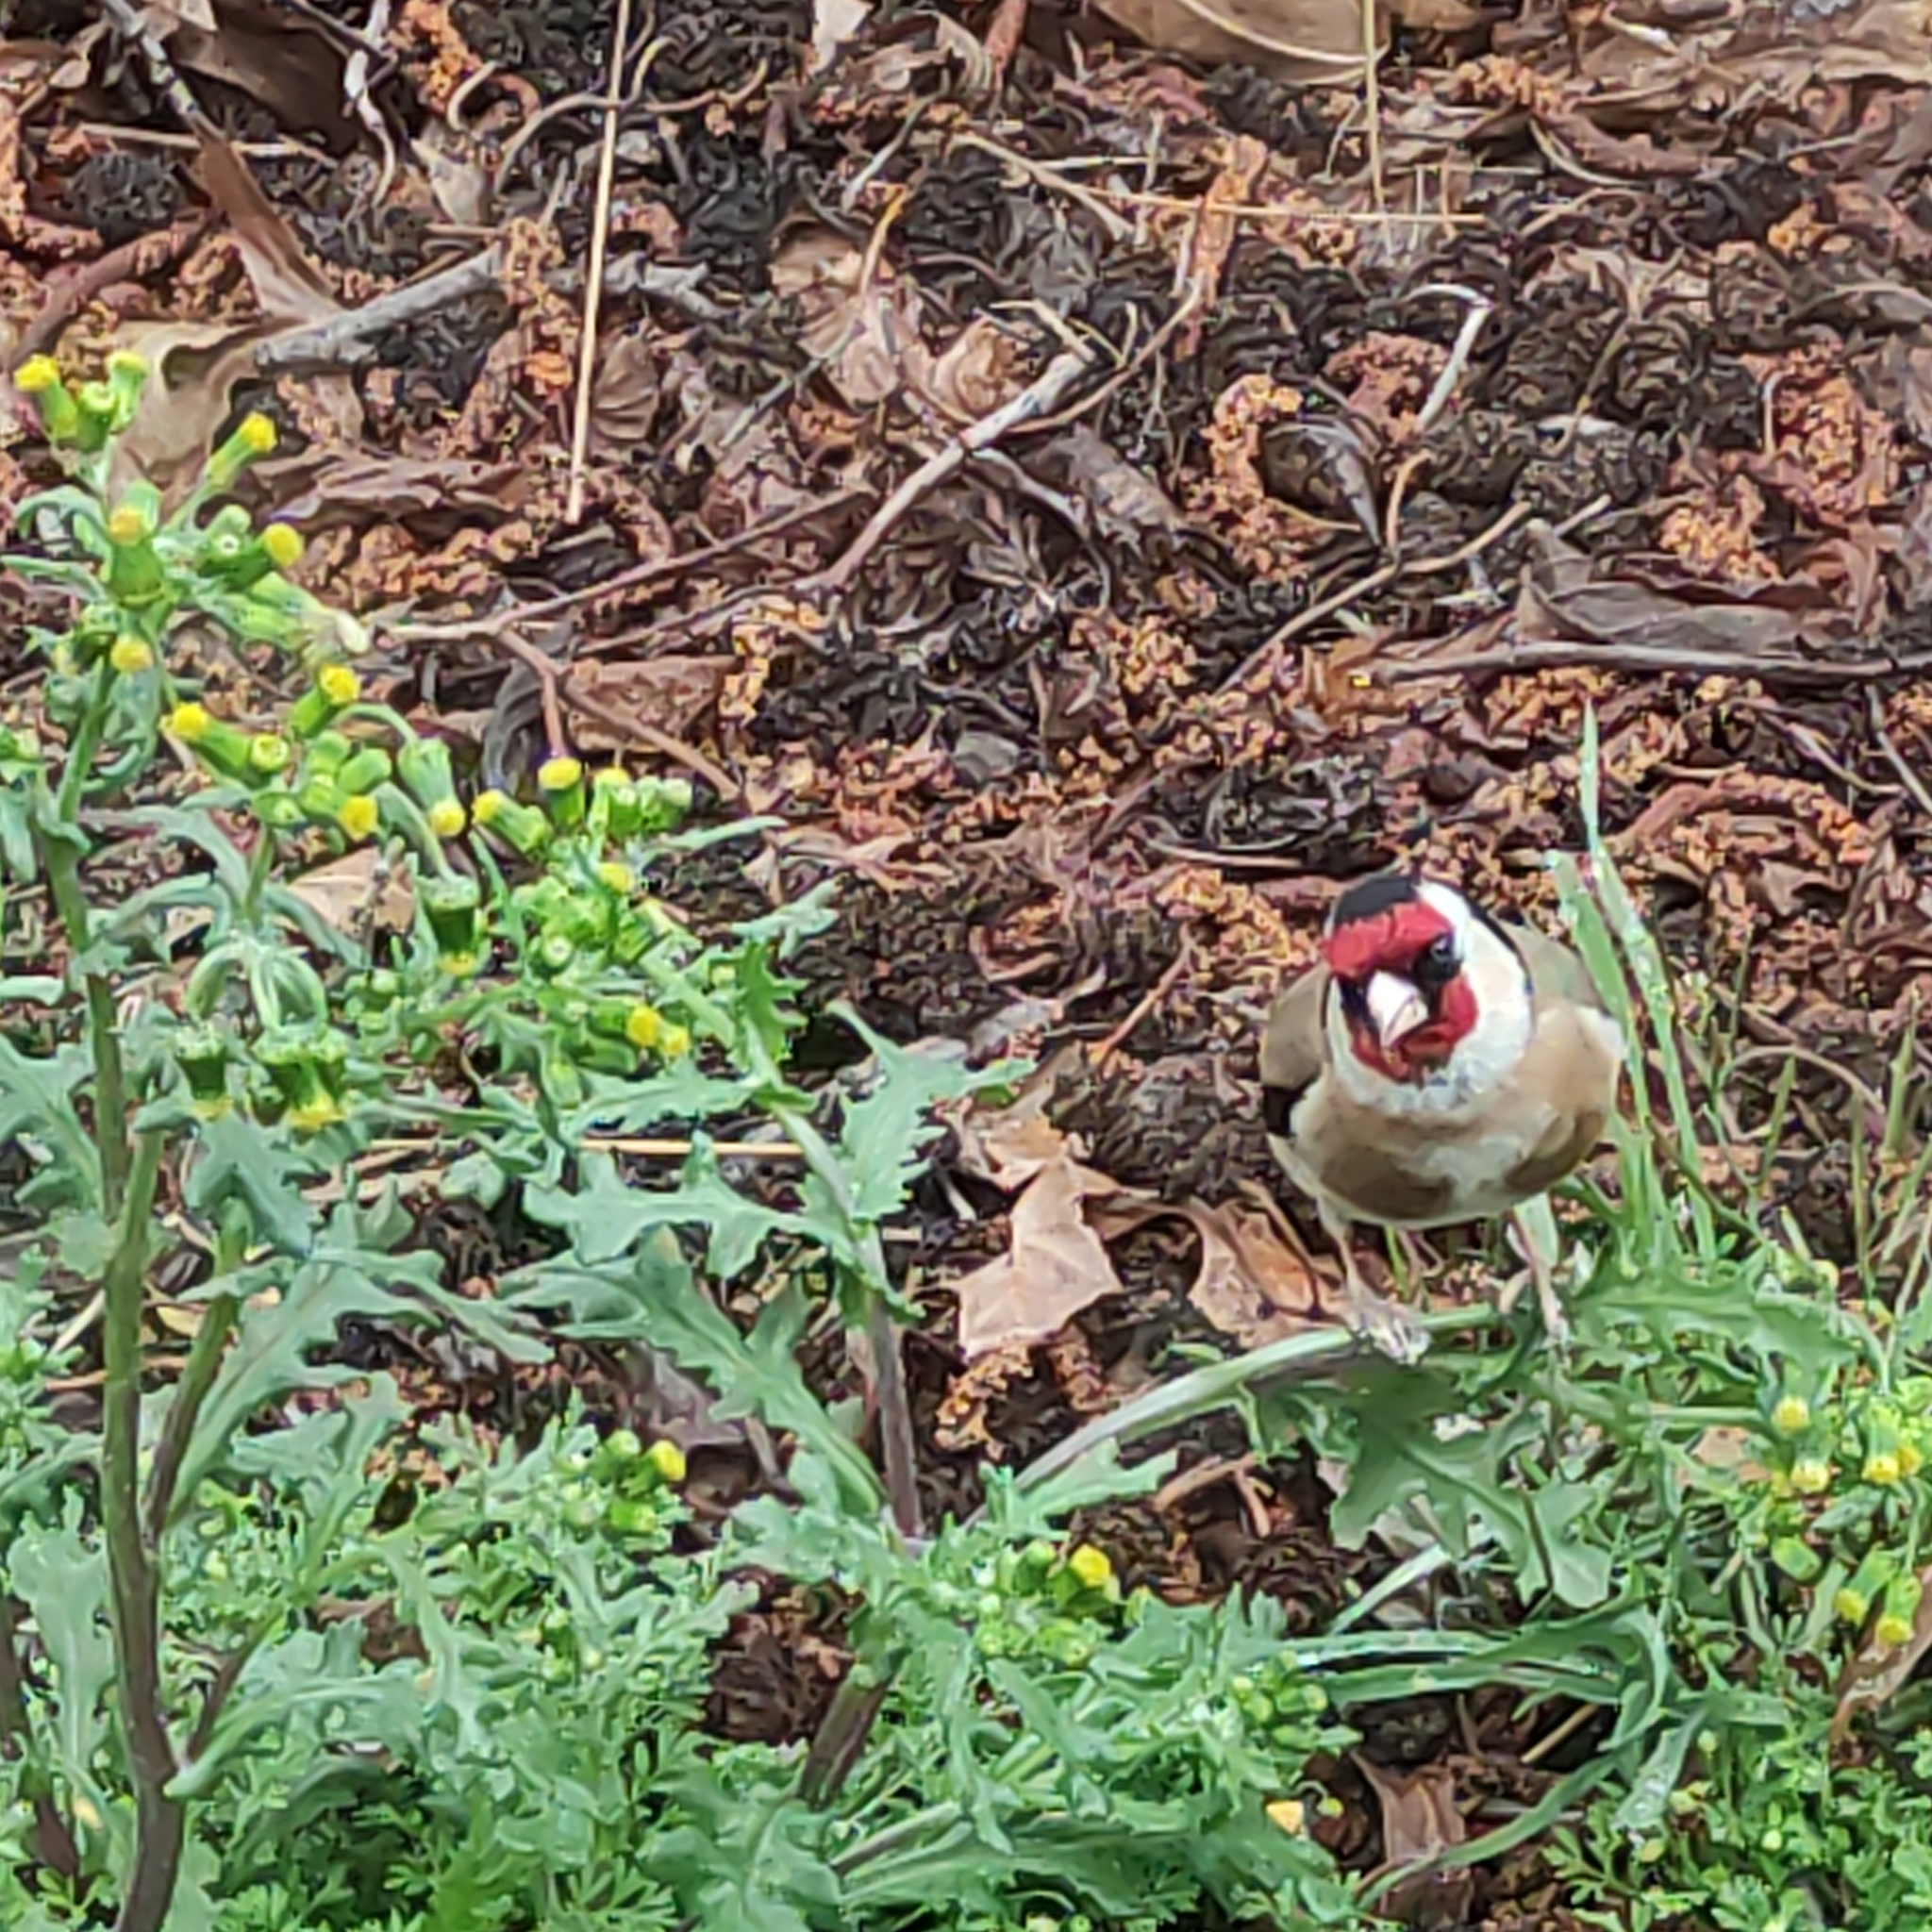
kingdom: Animalia
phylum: Chordata
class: Aves
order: Passeriformes
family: Fringillidae
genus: Carduelis
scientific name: Carduelis carduelis
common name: European goldfinch
